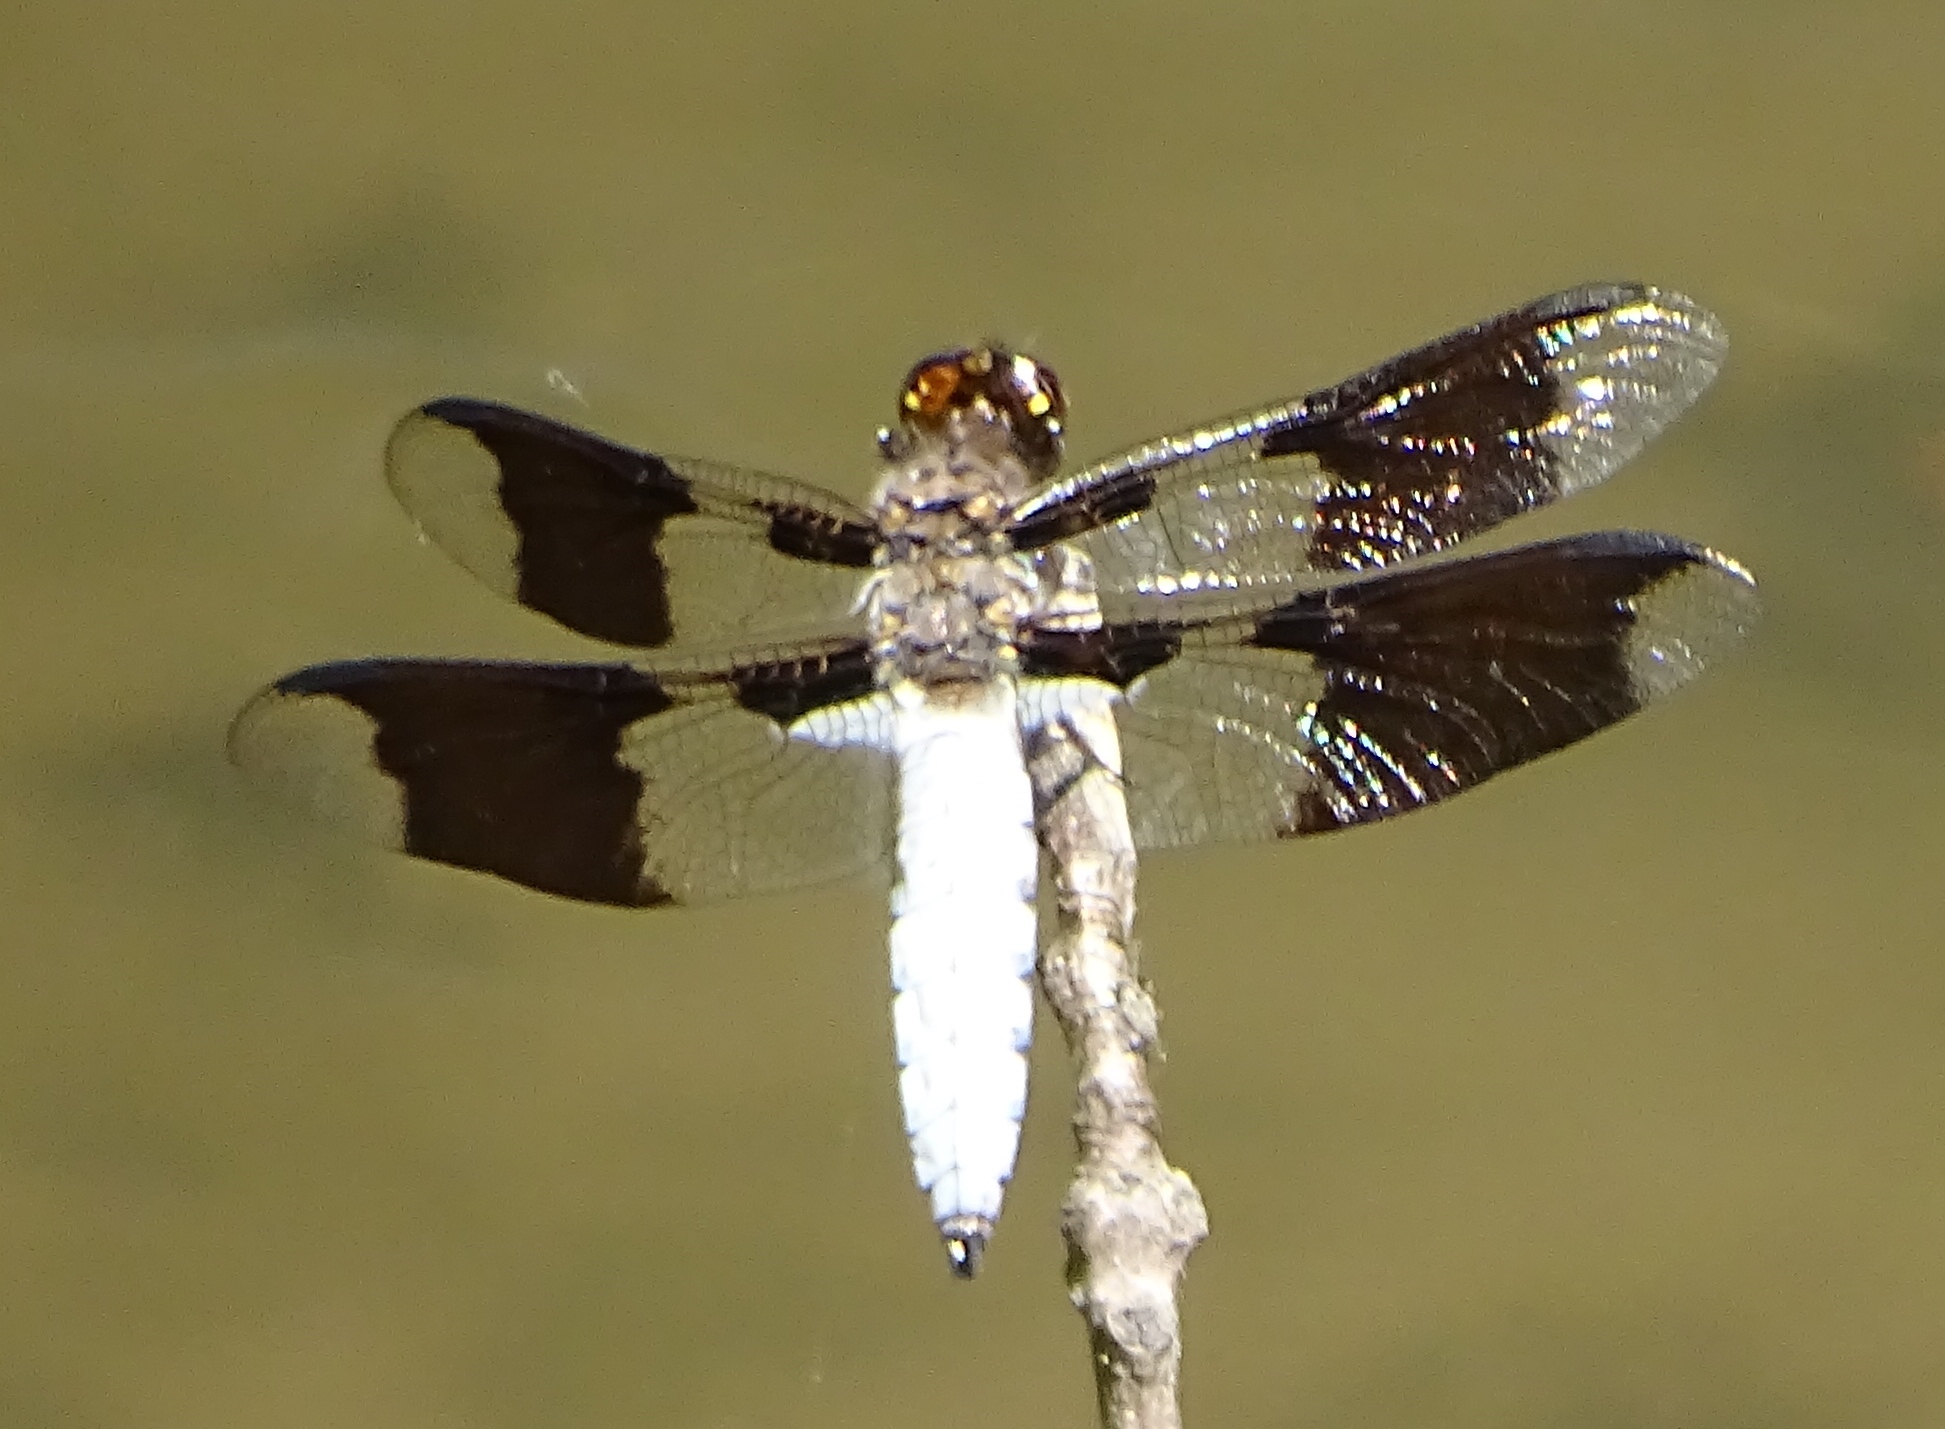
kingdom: Animalia
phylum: Arthropoda
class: Insecta
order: Odonata
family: Libellulidae
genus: Plathemis
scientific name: Plathemis lydia
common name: Common whitetail
